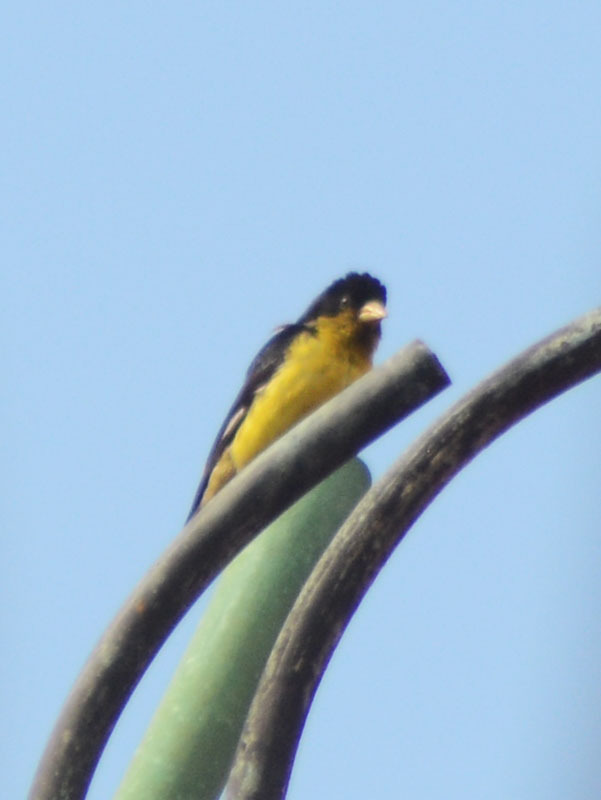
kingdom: Animalia
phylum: Chordata
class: Aves
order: Passeriformes
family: Fringillidae
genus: Spinus
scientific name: Spinus psaltria
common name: Lesser goldfinch
